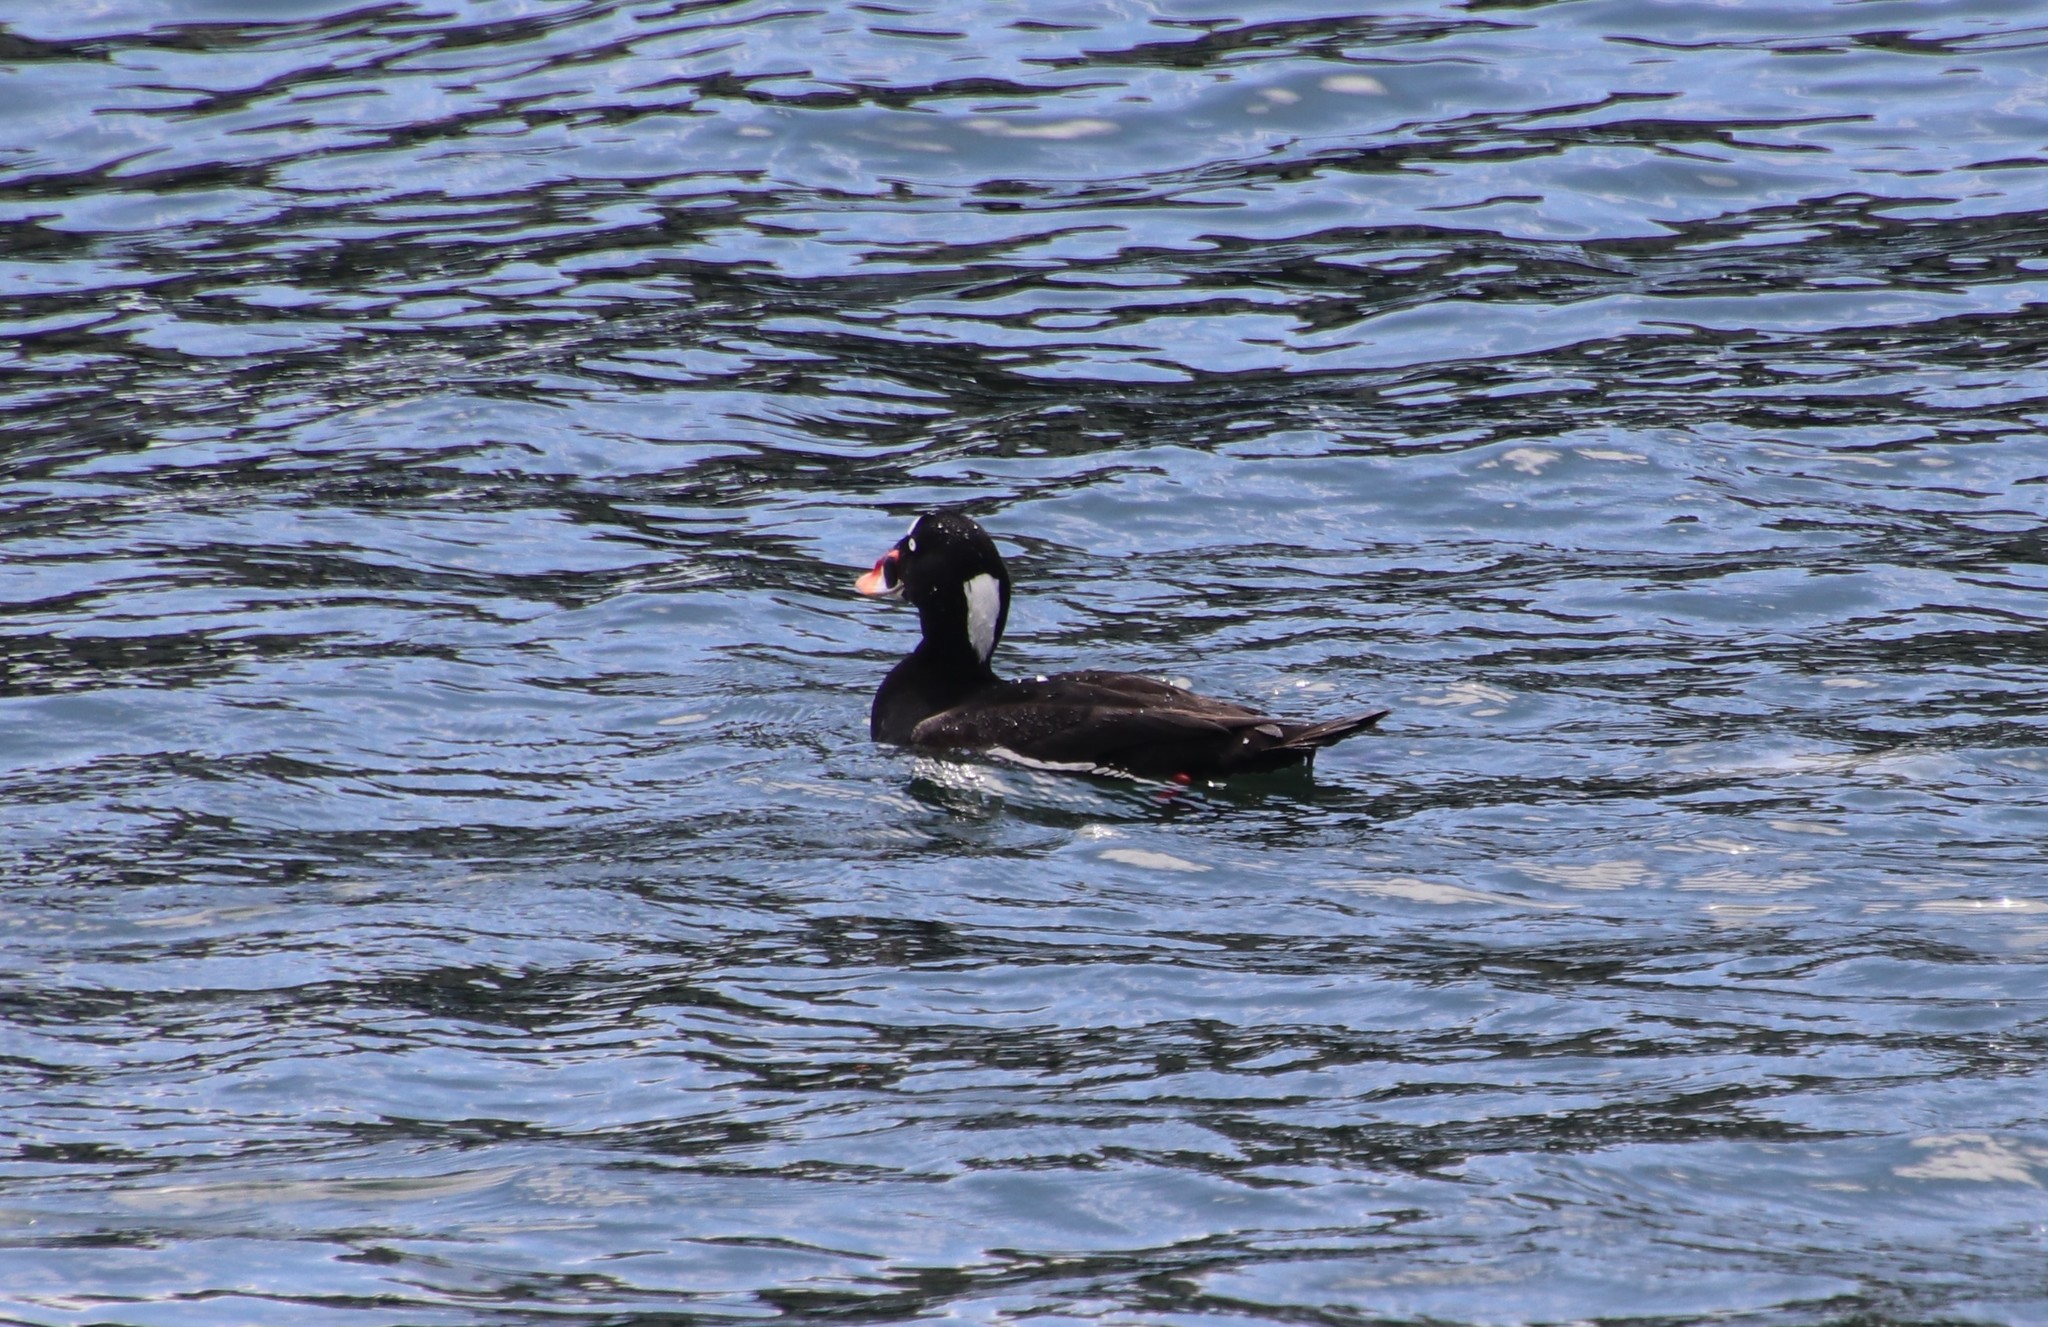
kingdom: Animalia
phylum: Chordata
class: Aves
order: Anseriformes
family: Anatidae
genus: Melanitta
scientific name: Melanitta perspicillata
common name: Surf scoter
